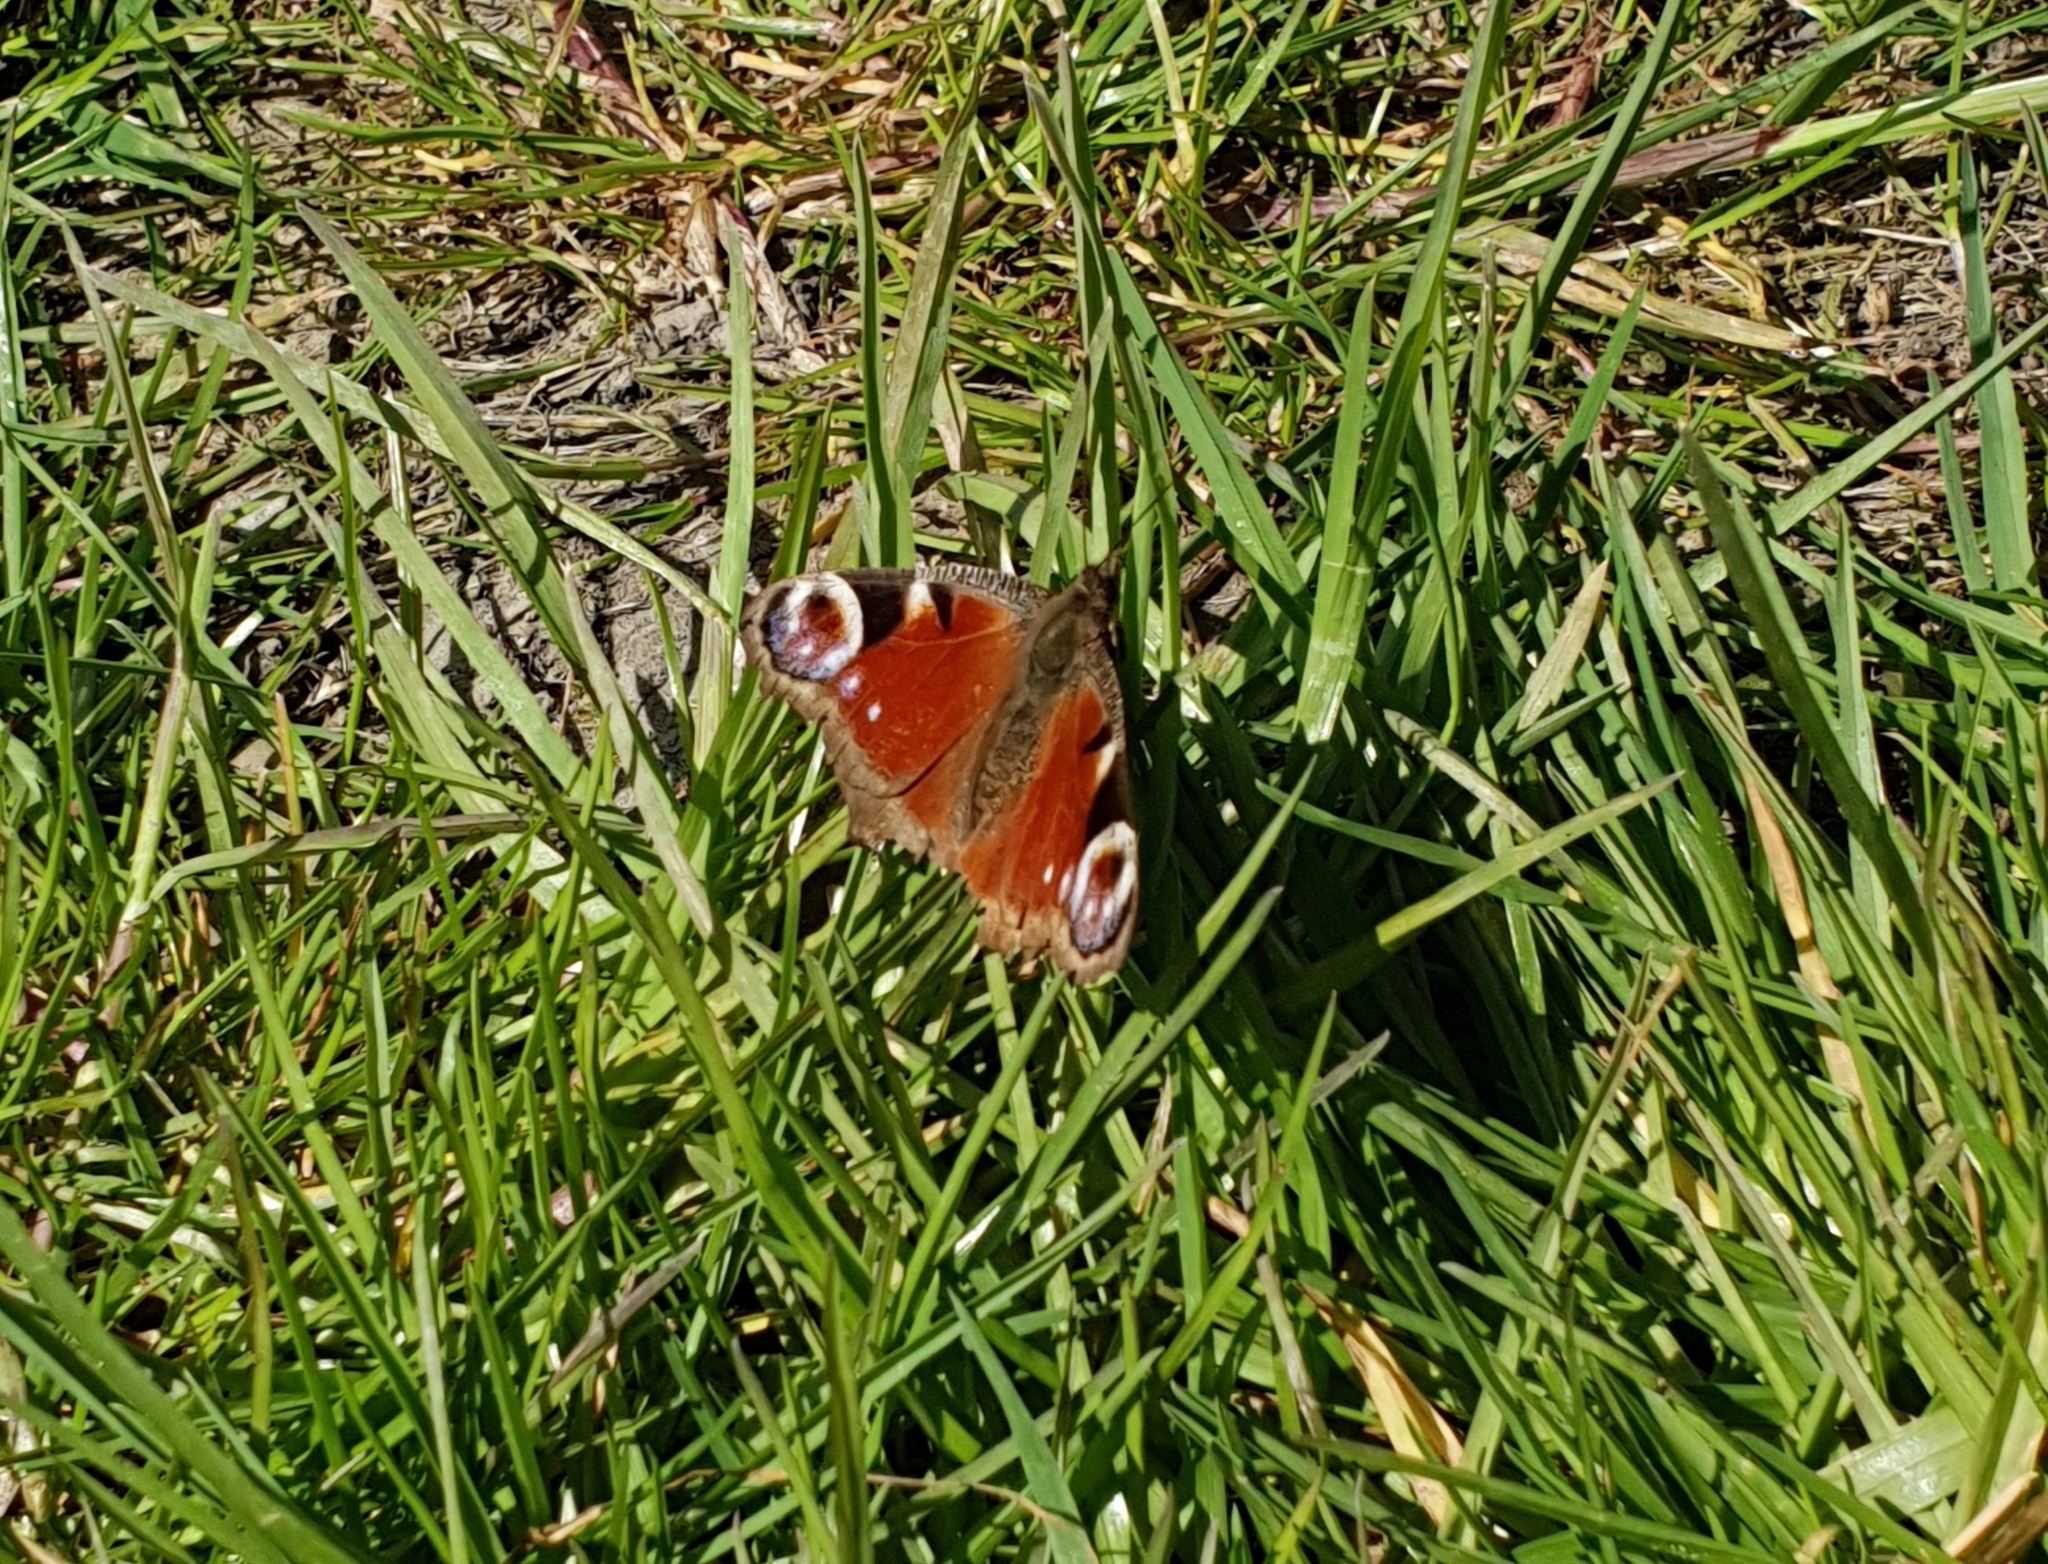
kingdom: Animalia
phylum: Arthropoda
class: Insecta
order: Lepidoptera
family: Nymphalidae
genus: Aglais
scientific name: Aglais io
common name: Peacock
